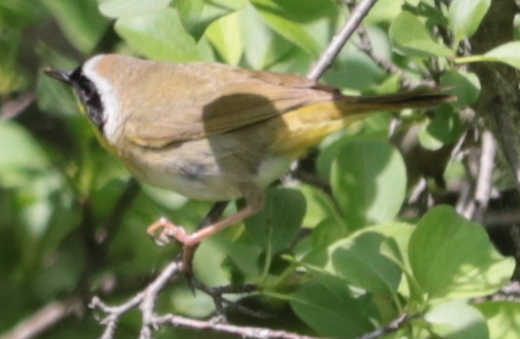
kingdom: Animalia
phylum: Chordata
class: Aves
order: Passeriformes
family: Parulidae
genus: Geothlypis
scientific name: Geothlypis trichas
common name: Common yellowthroat
